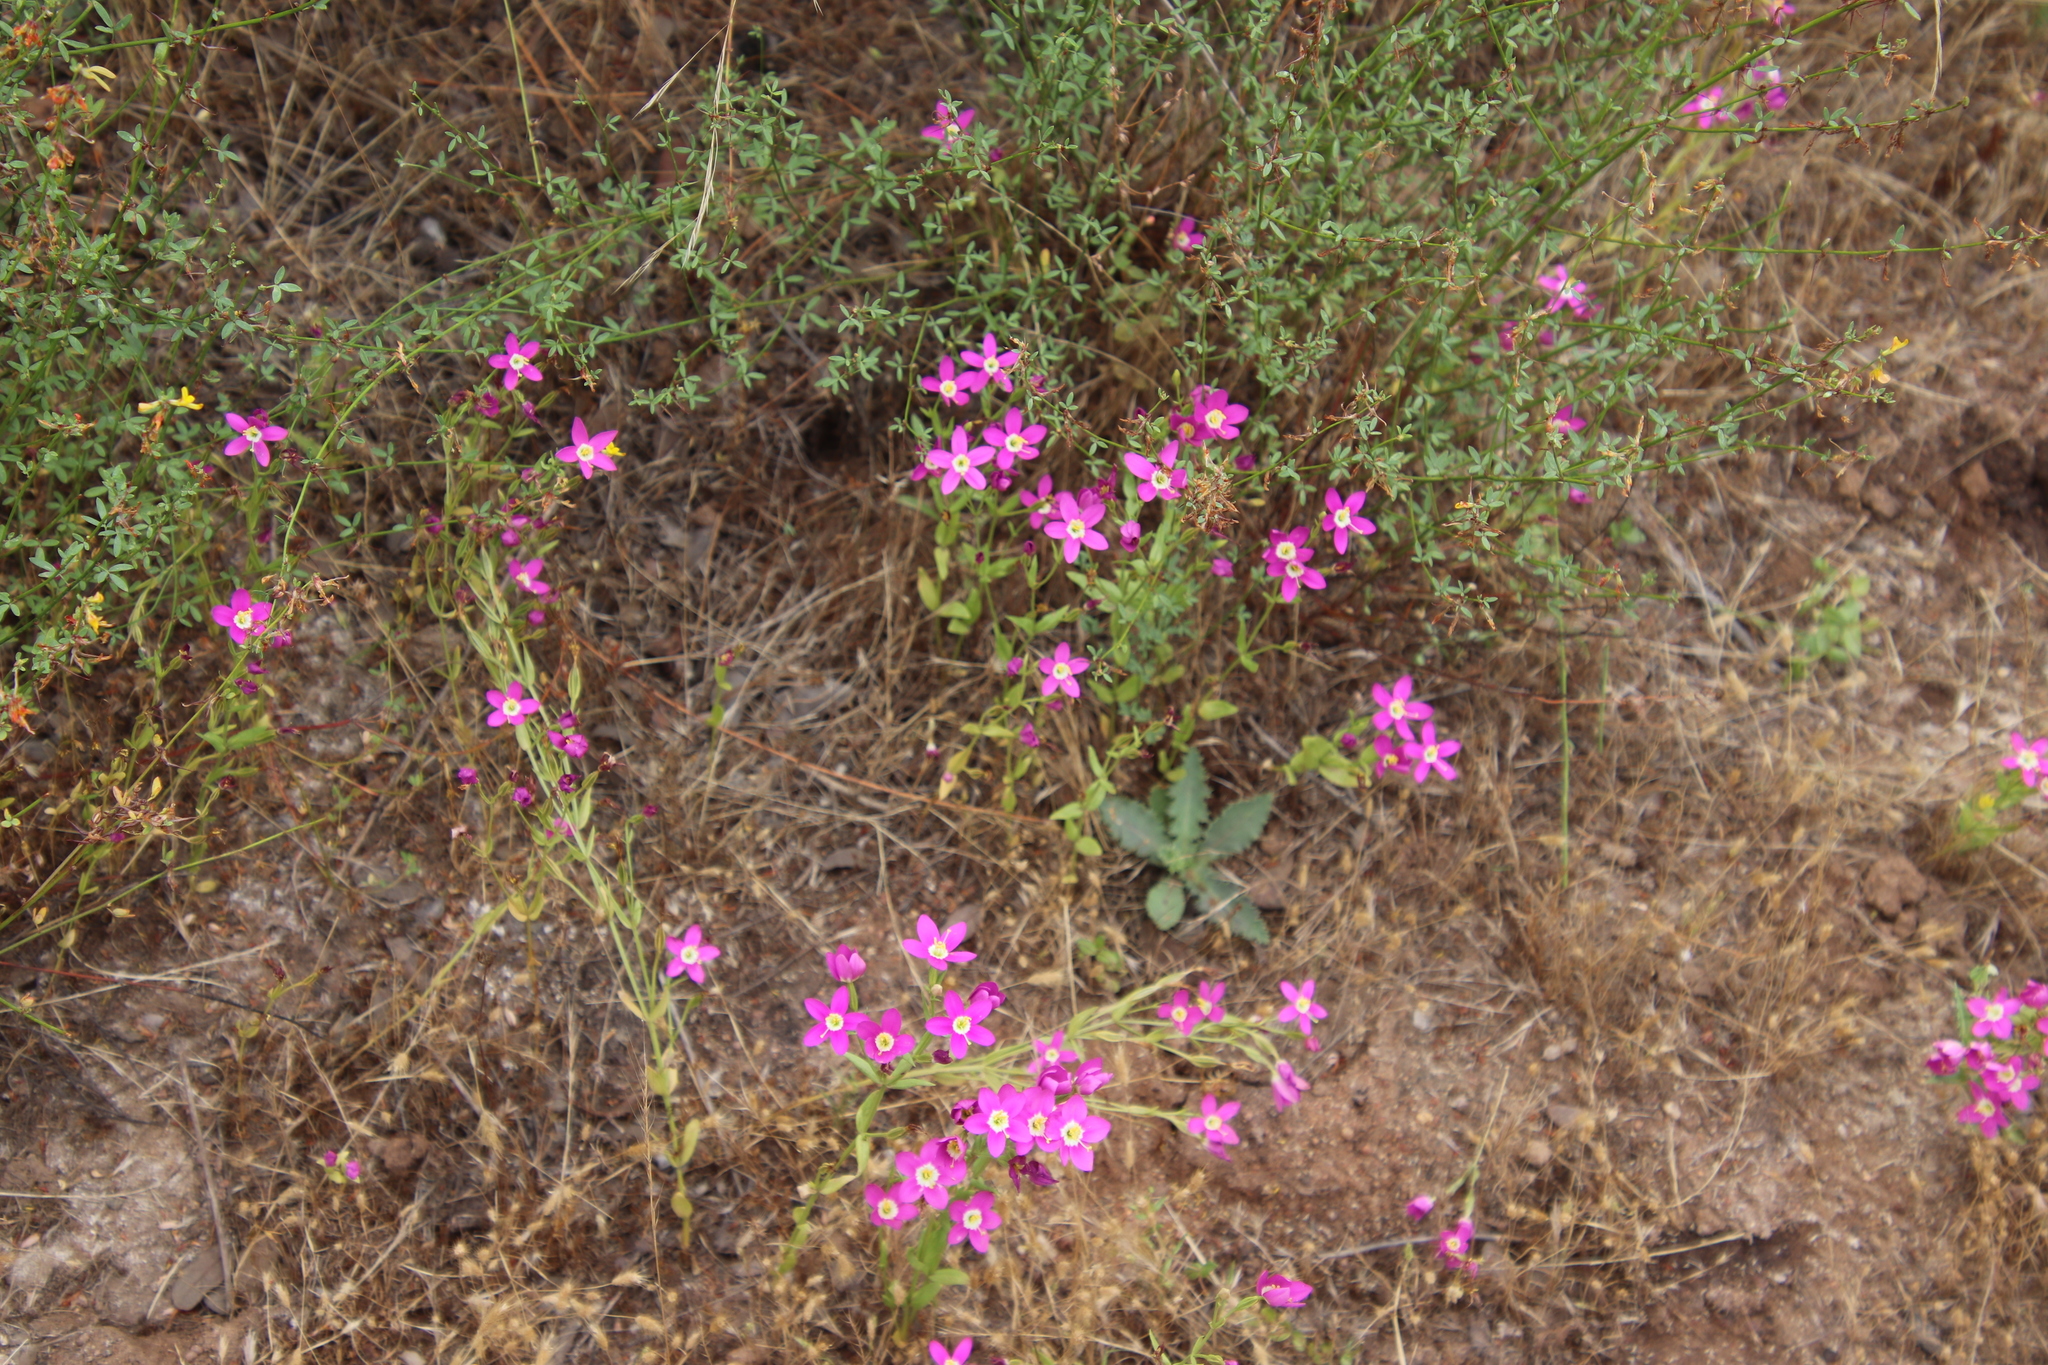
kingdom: Plantae
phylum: Tracheophyta
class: Magnoliopsida
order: Gentianales
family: Gentianaceae
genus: Zeltnera
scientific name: Zeltnera venusta
